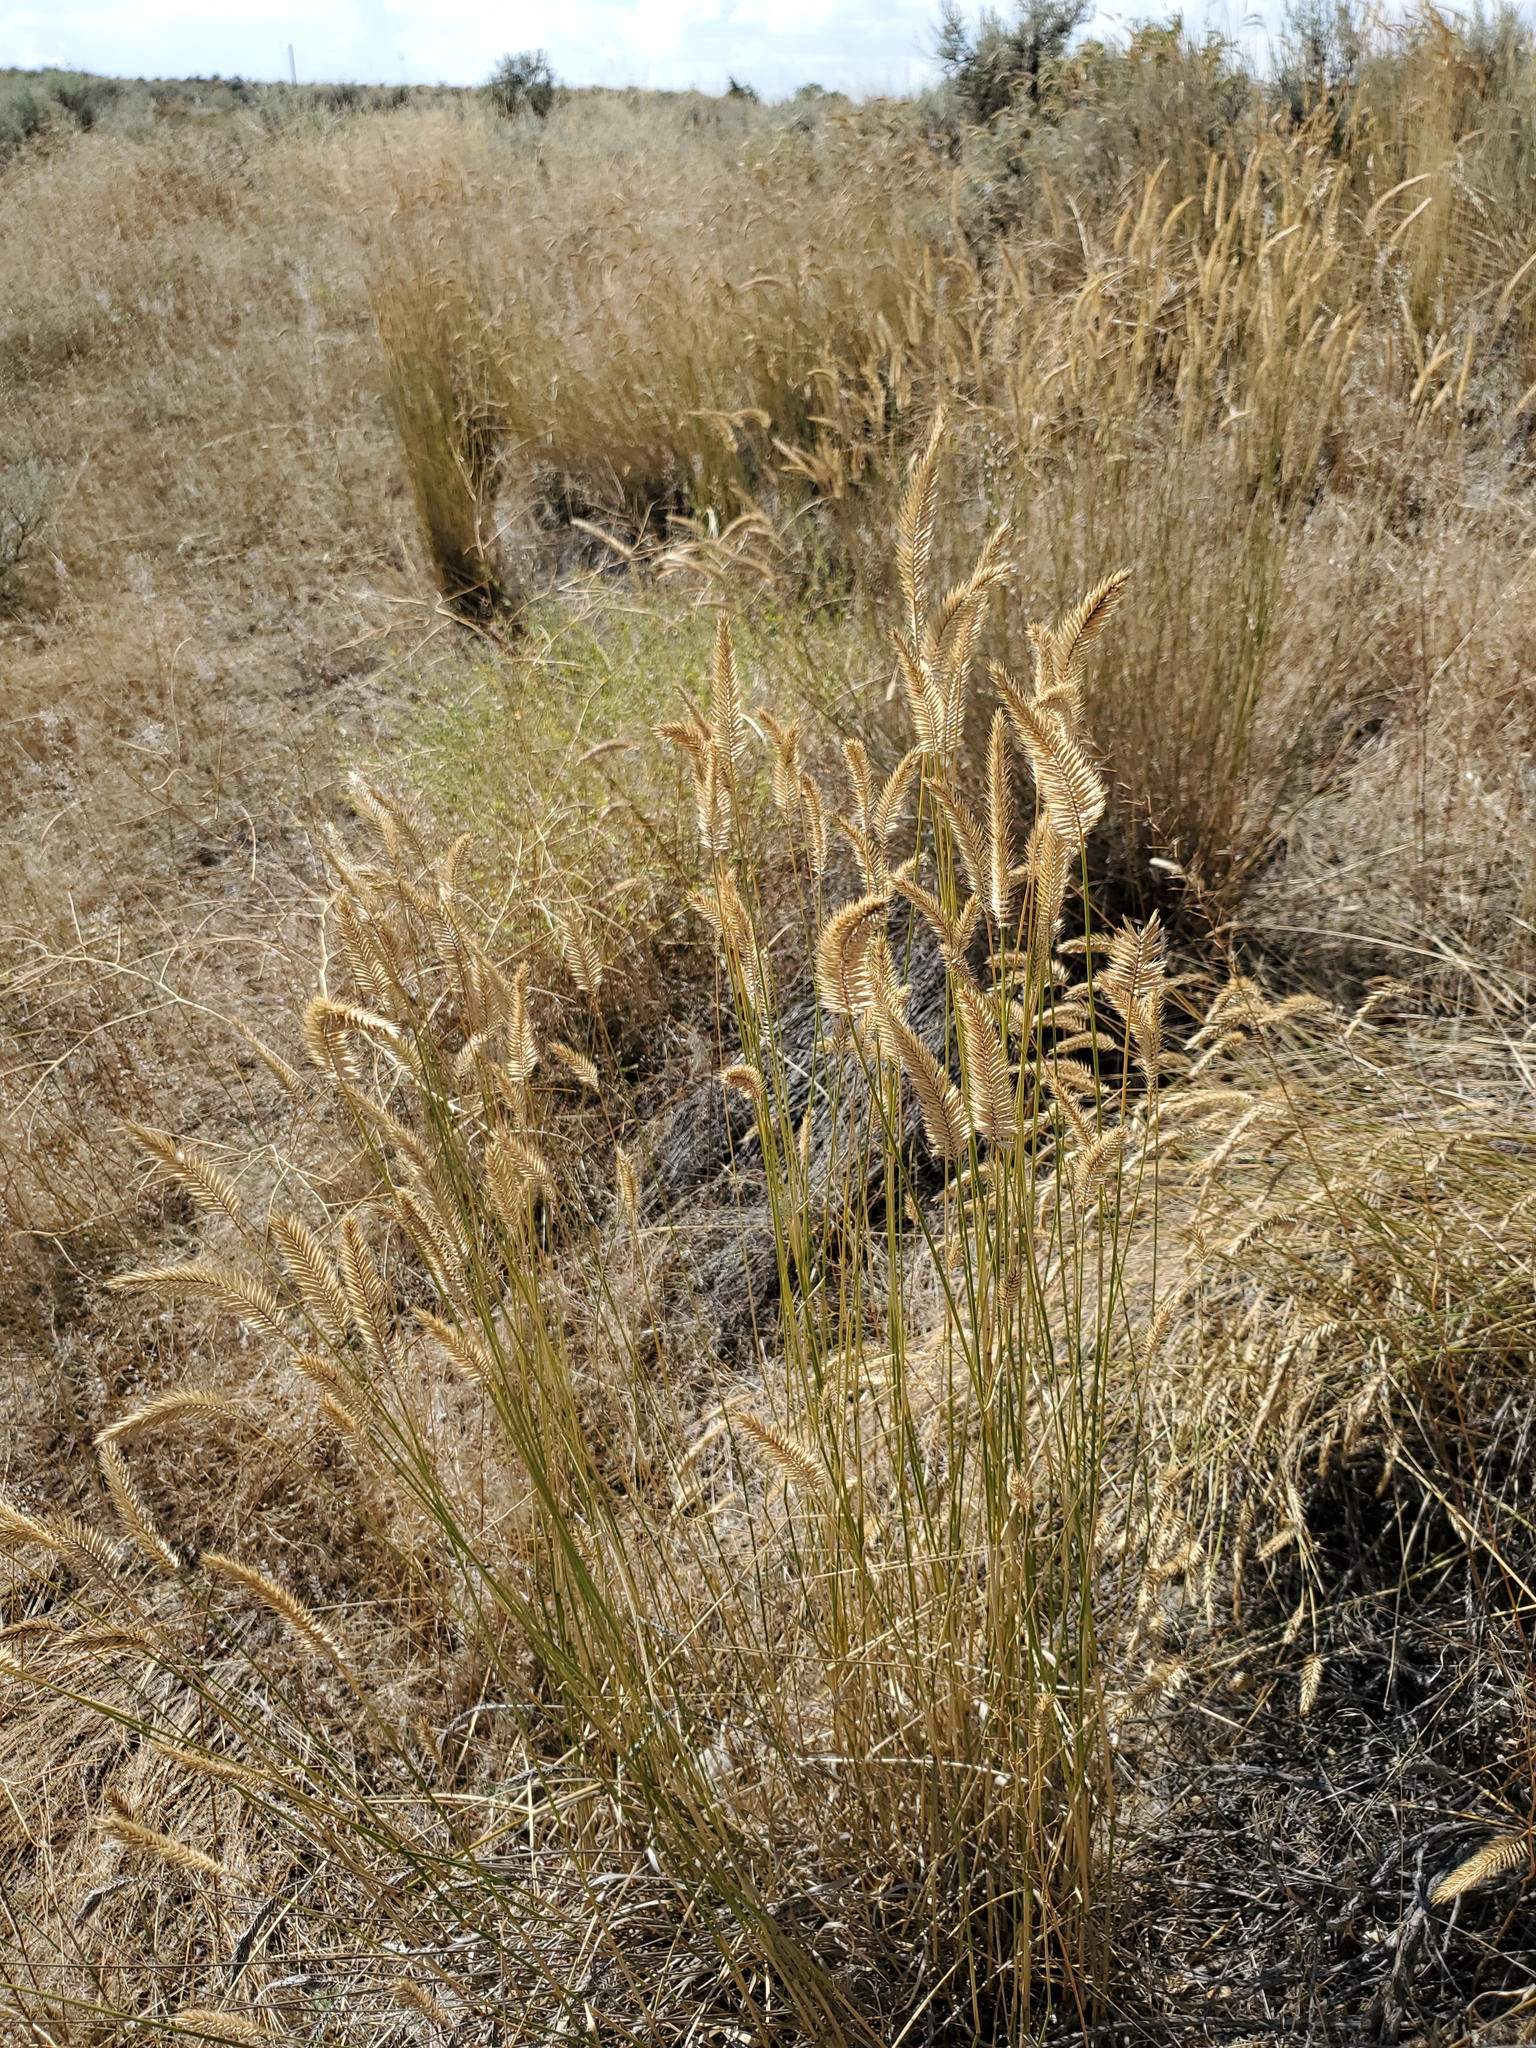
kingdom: Plantae
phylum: Tracheophyta
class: Liliopsida
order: Poales
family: Poaceae
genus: Agropyron
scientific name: Agropyron cristatum
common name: Crested wheatgrass
